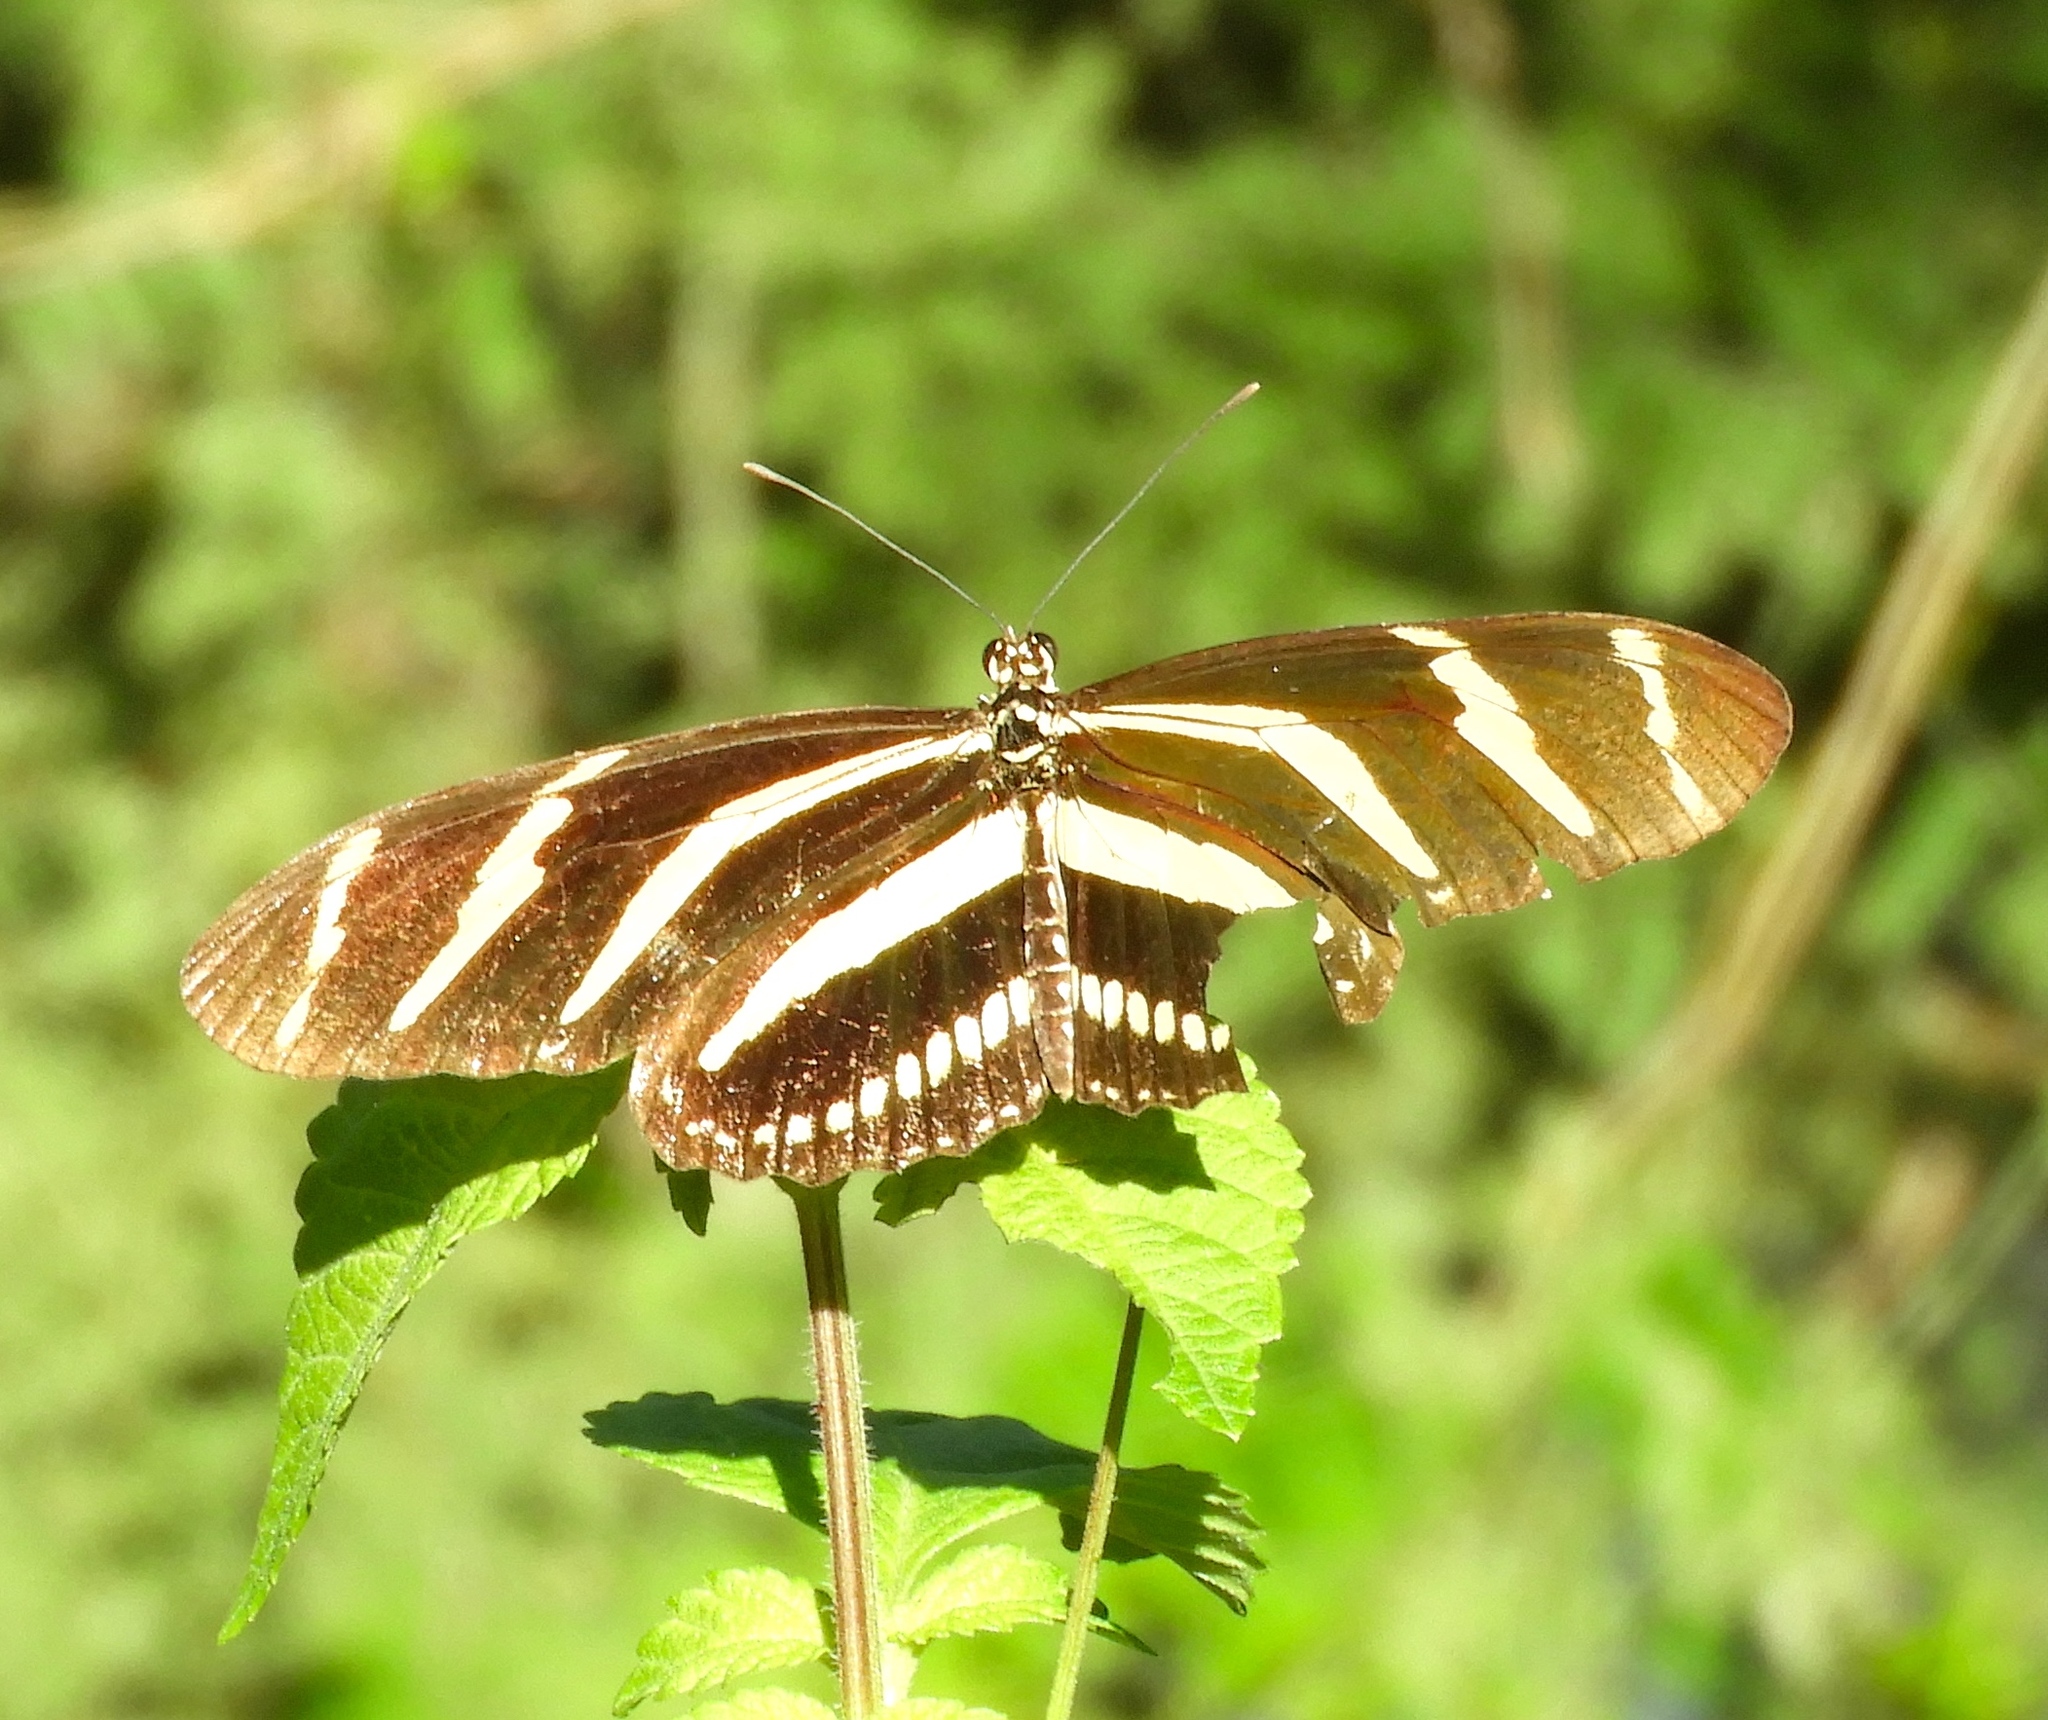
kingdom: Animalia
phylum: Arthropoda
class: Insecta
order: Lepidoptera
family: Nymphalidae
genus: Heliconius
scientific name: Heliconius charithonia
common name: Zebra long wing
